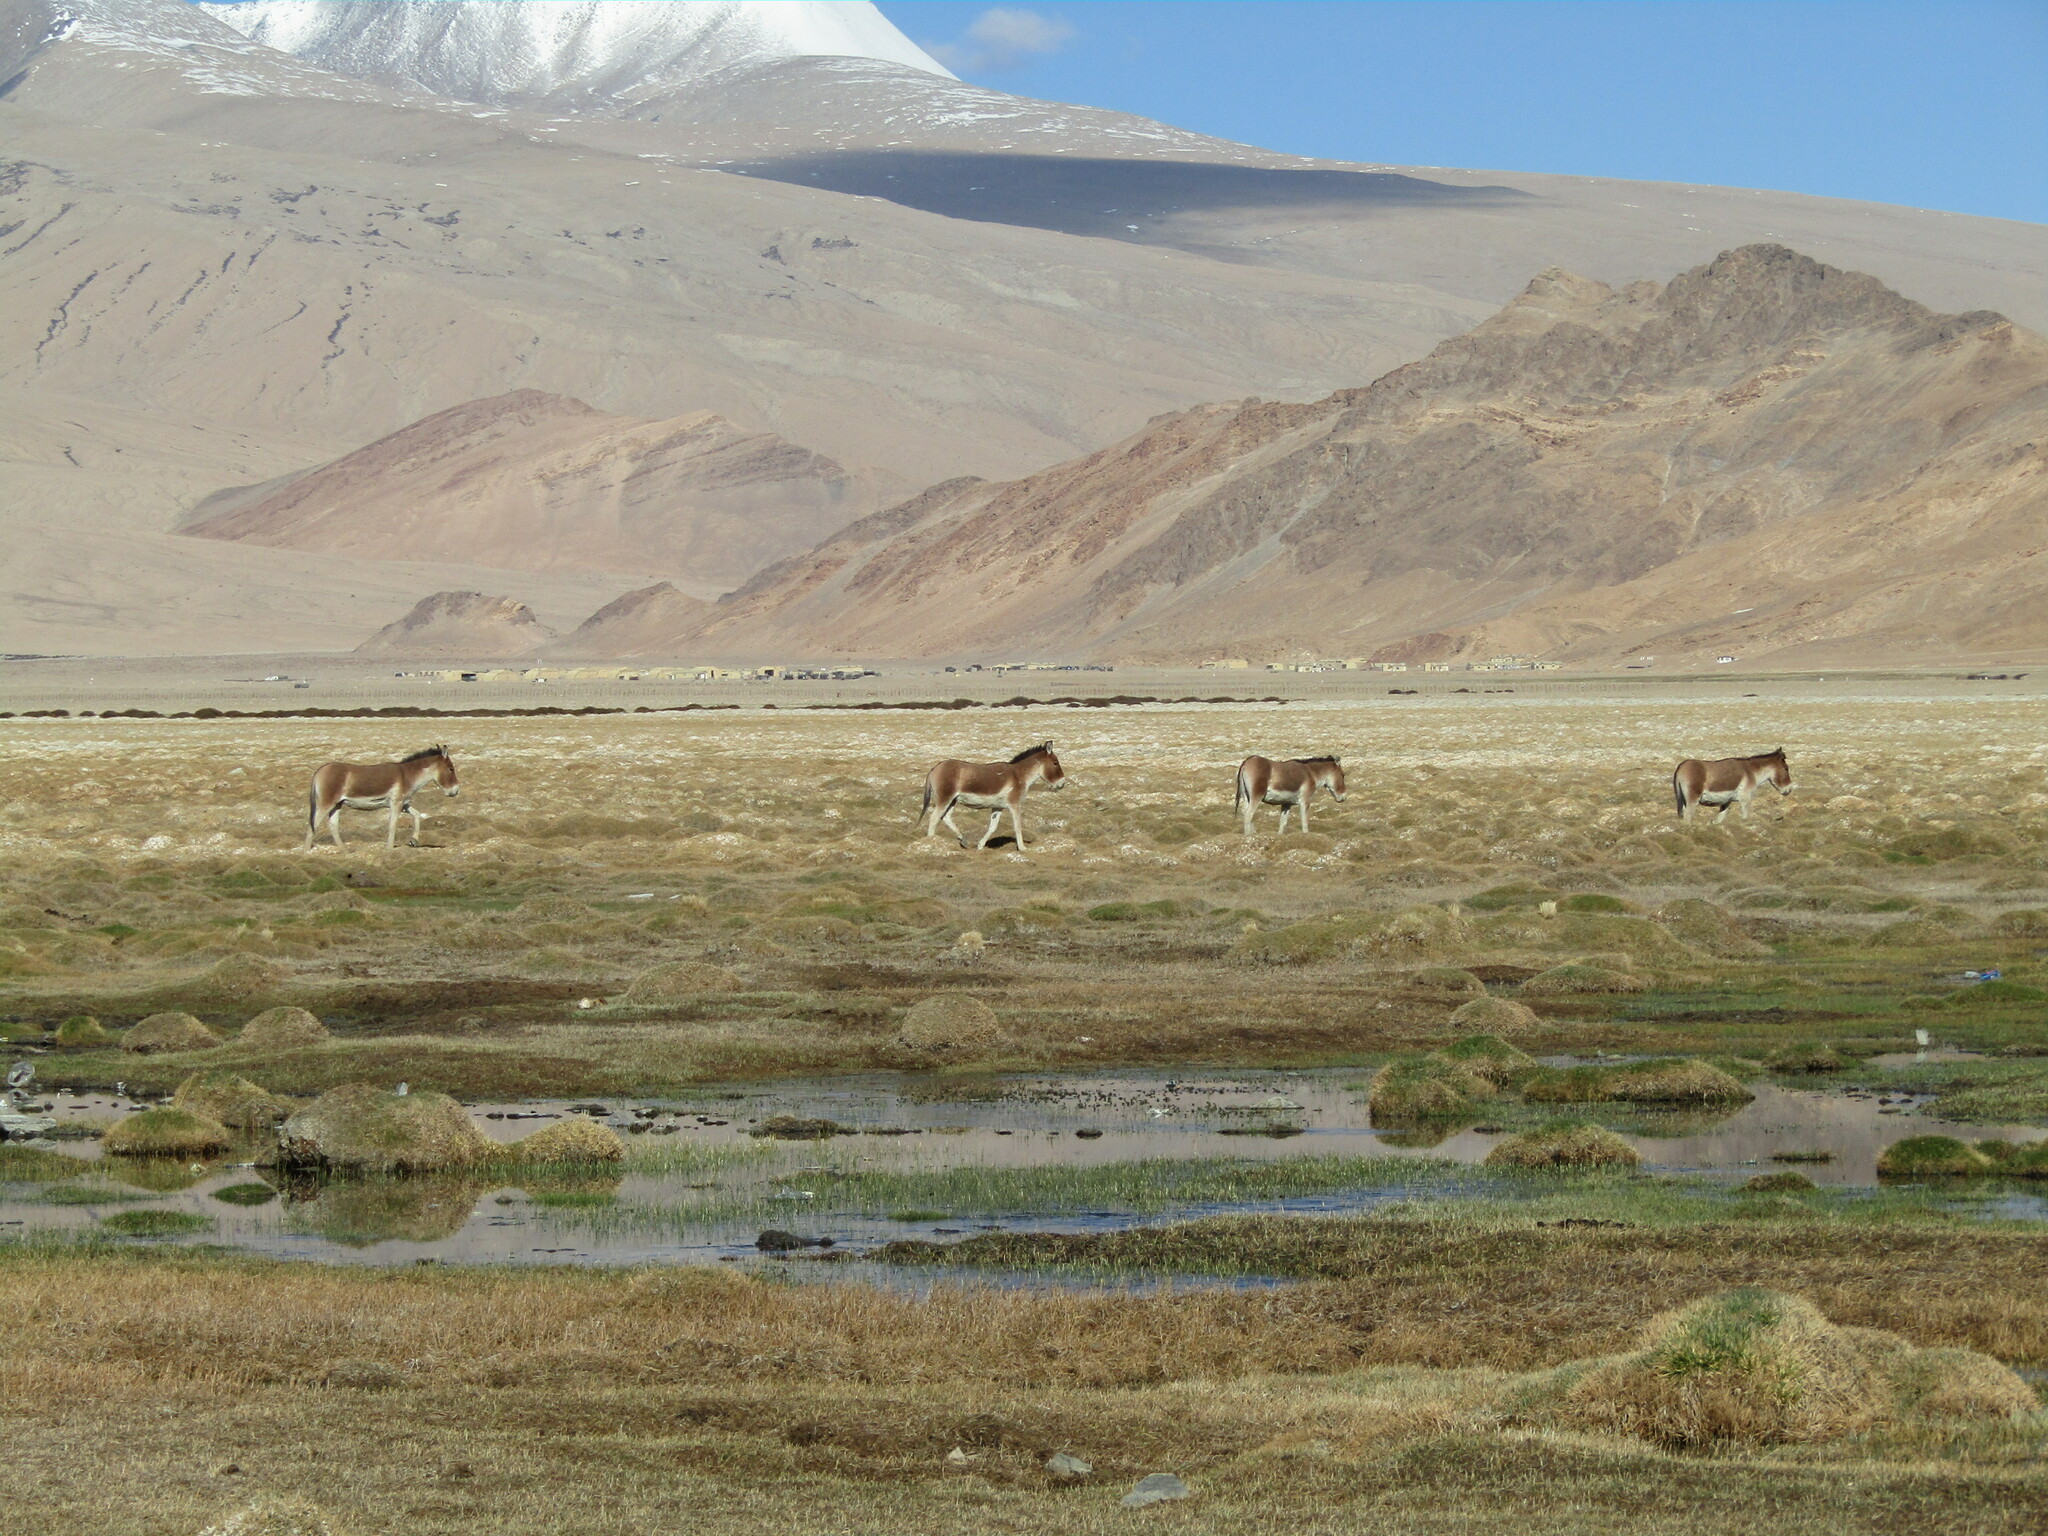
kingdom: Animalia
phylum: Chordata
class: Mammalia
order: Perissodactyla
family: Equidae
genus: Equus
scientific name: Equus kiang
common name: Kiang
